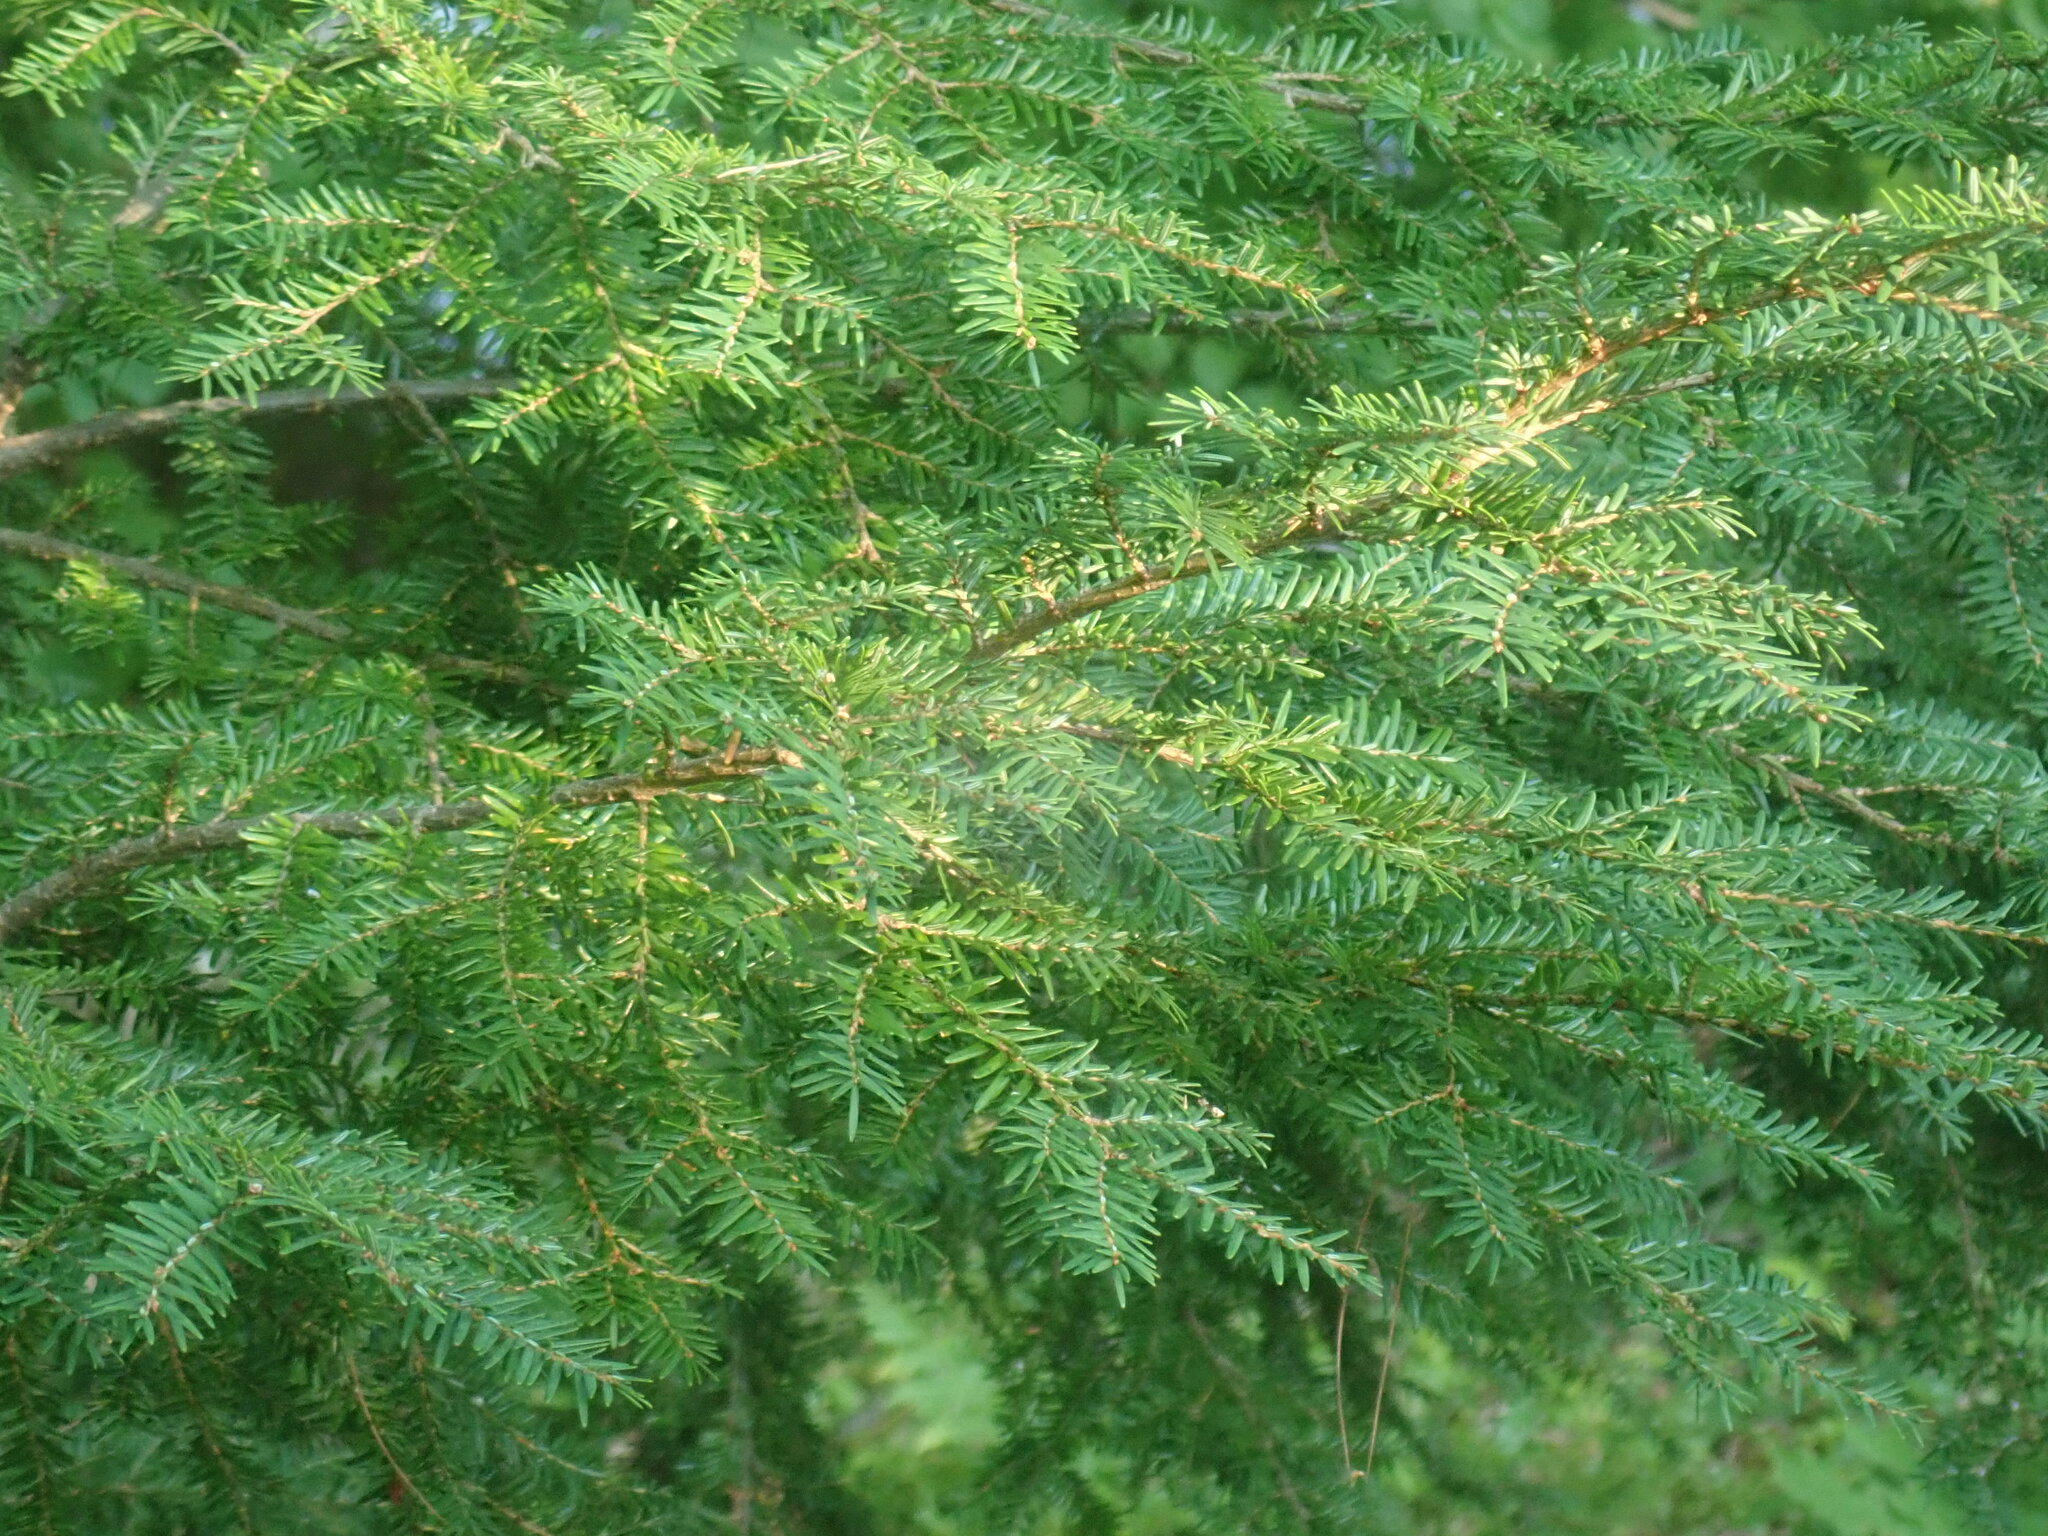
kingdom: Plantae
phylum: Tracheophyta
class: Pinopsida
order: Pinales
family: Pinaceae
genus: Tsuga
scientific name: Tsuga canadensis
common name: Eastern hemlock
